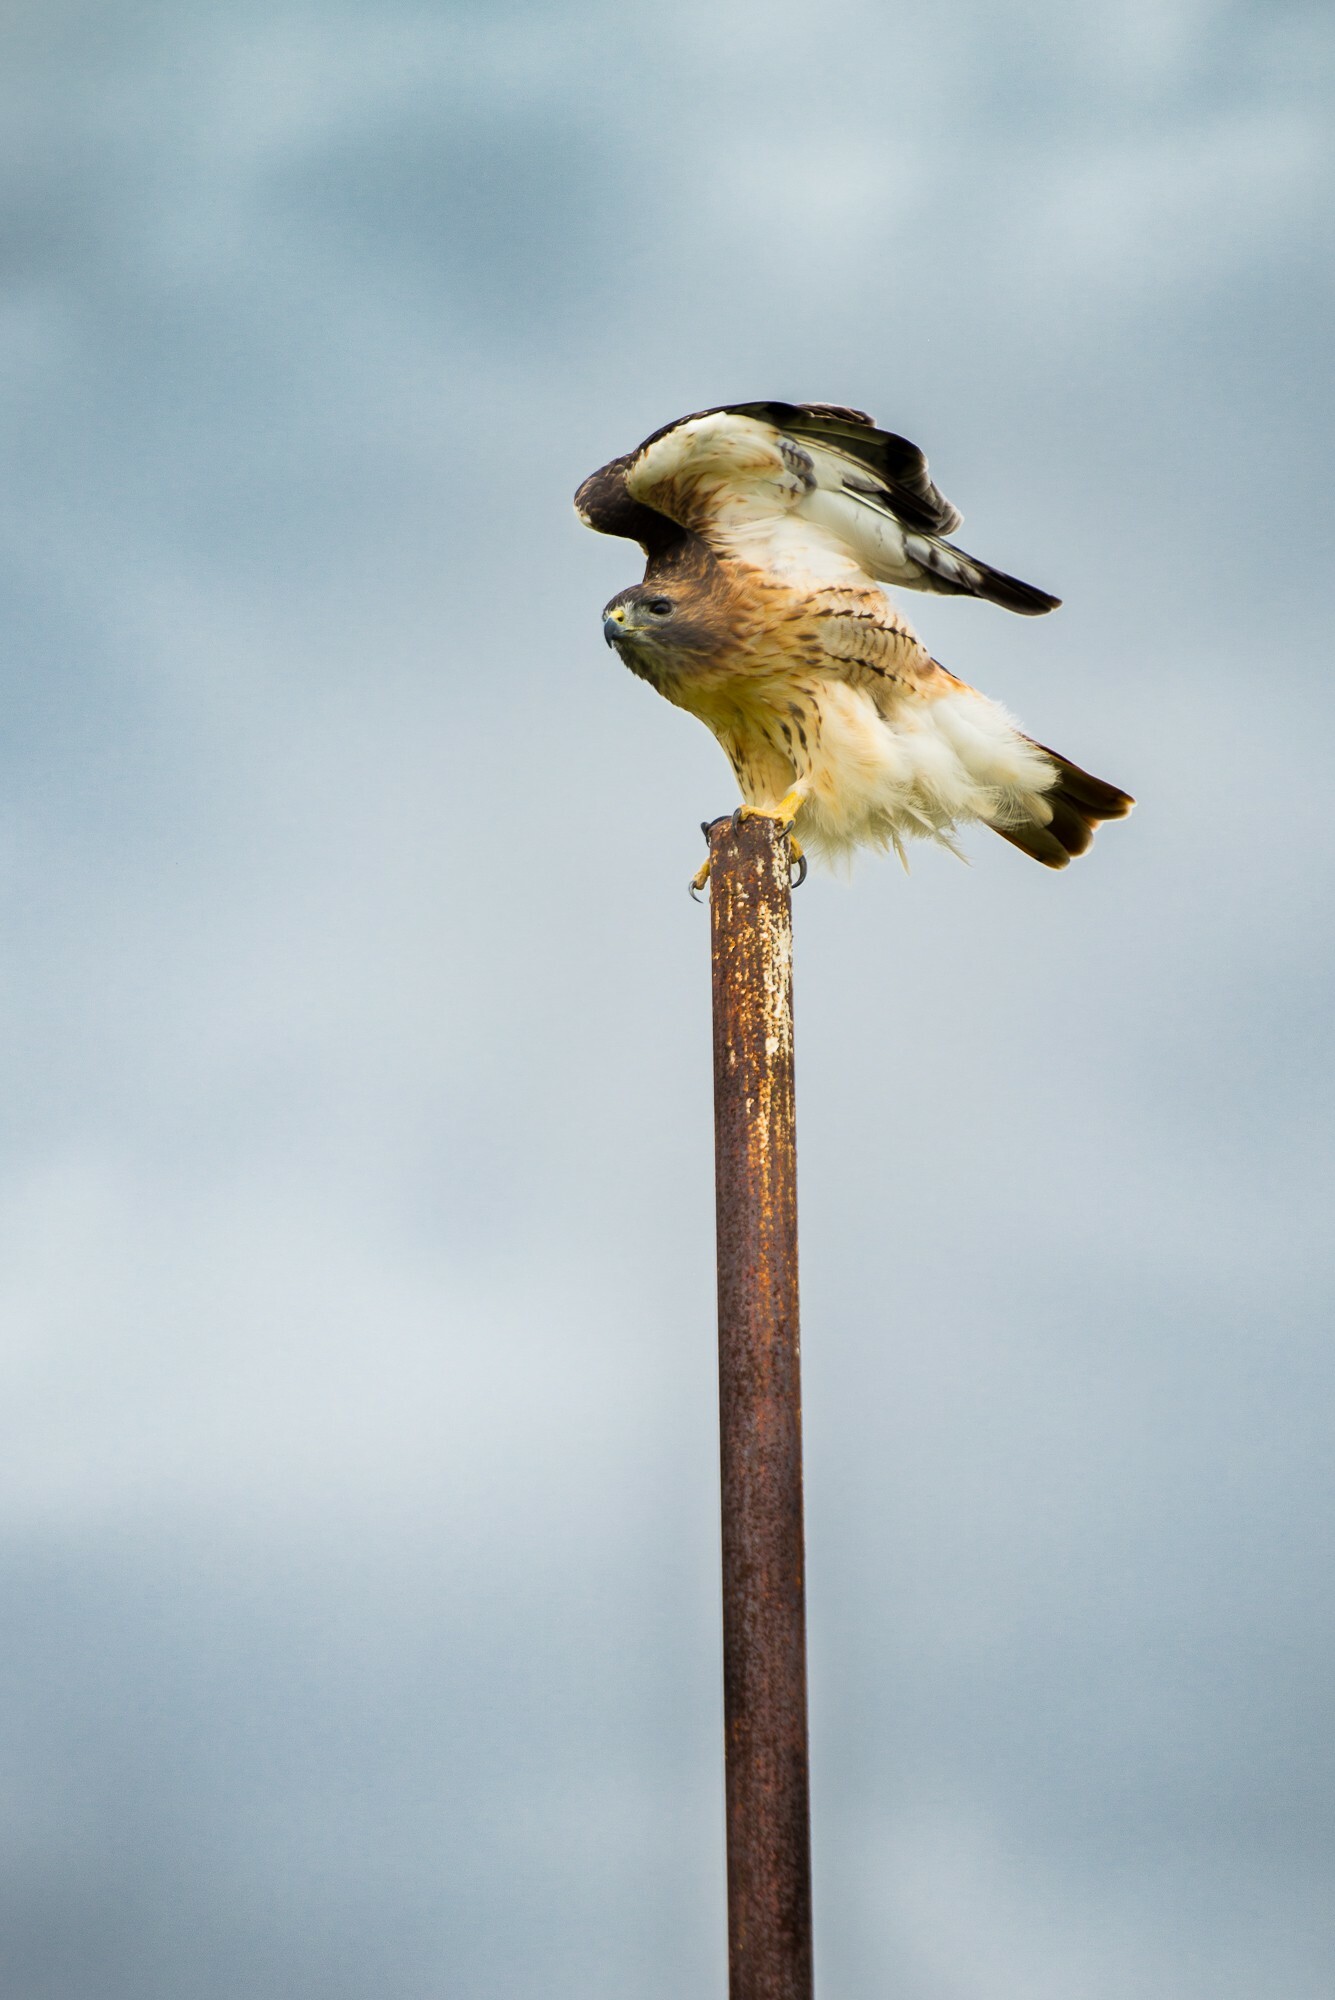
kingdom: Animalia
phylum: Chordata
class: Aves
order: Accipitriformes
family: Accipitridae
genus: Buteo
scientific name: Buteo jamaicensis
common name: Red-tailed hawk
